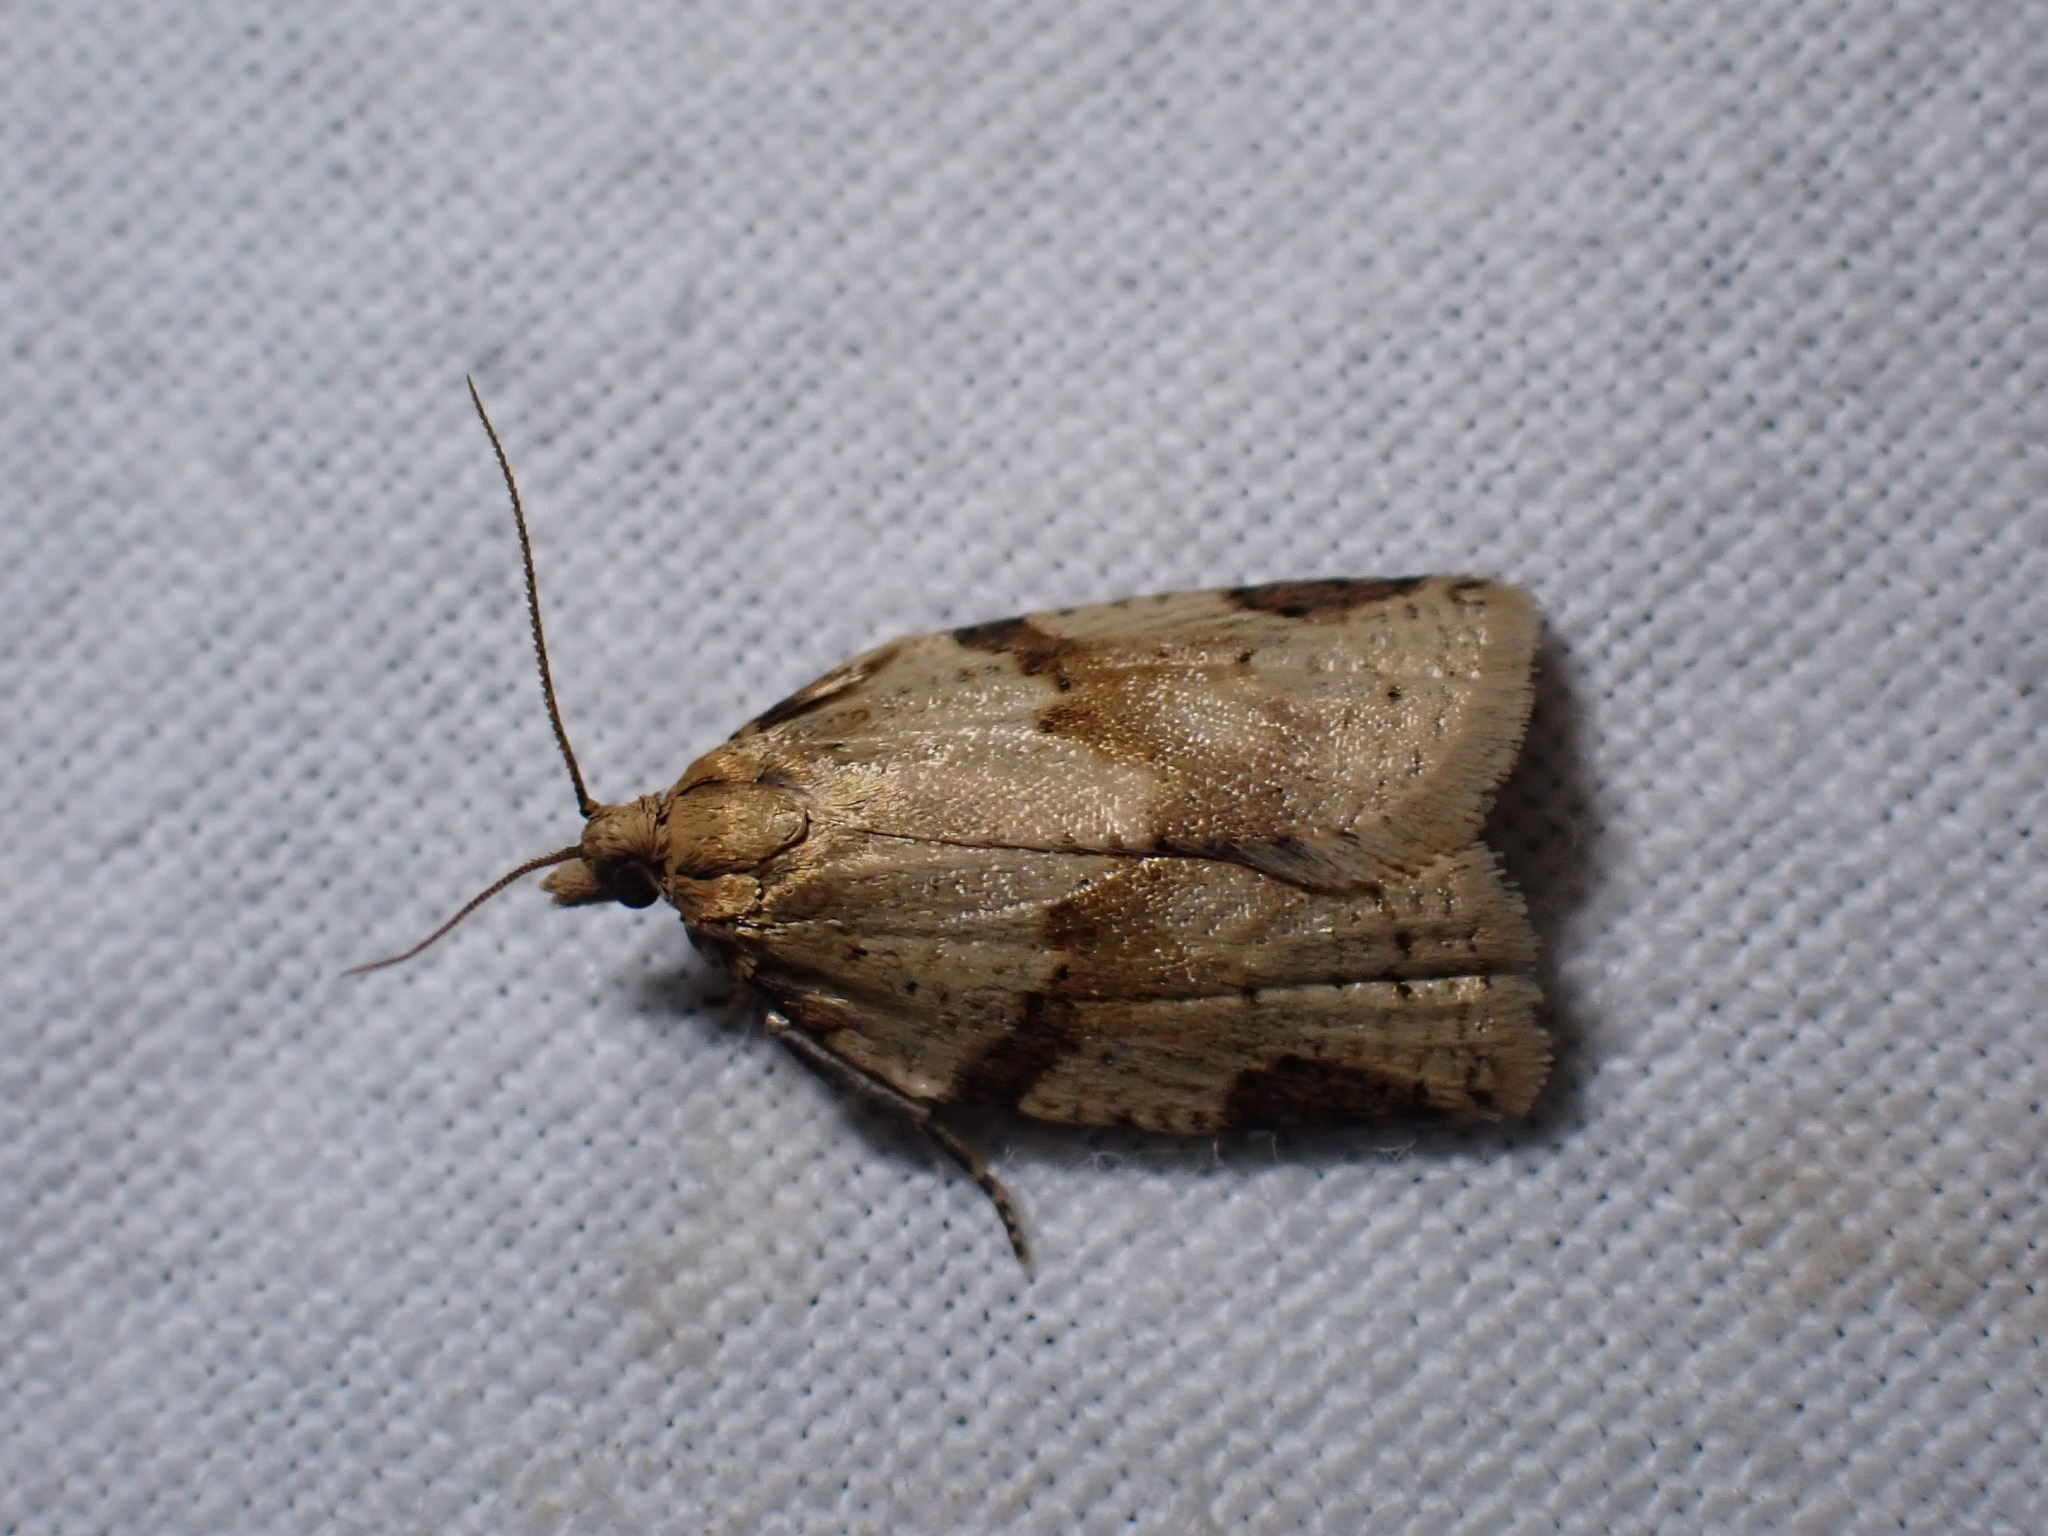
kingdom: Animalia
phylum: Arthropoda
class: Insecta
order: Lepidoptera
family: Tortricidae
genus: Clepsis
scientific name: Clepsis spectrana
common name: Cyclamen tortrix
